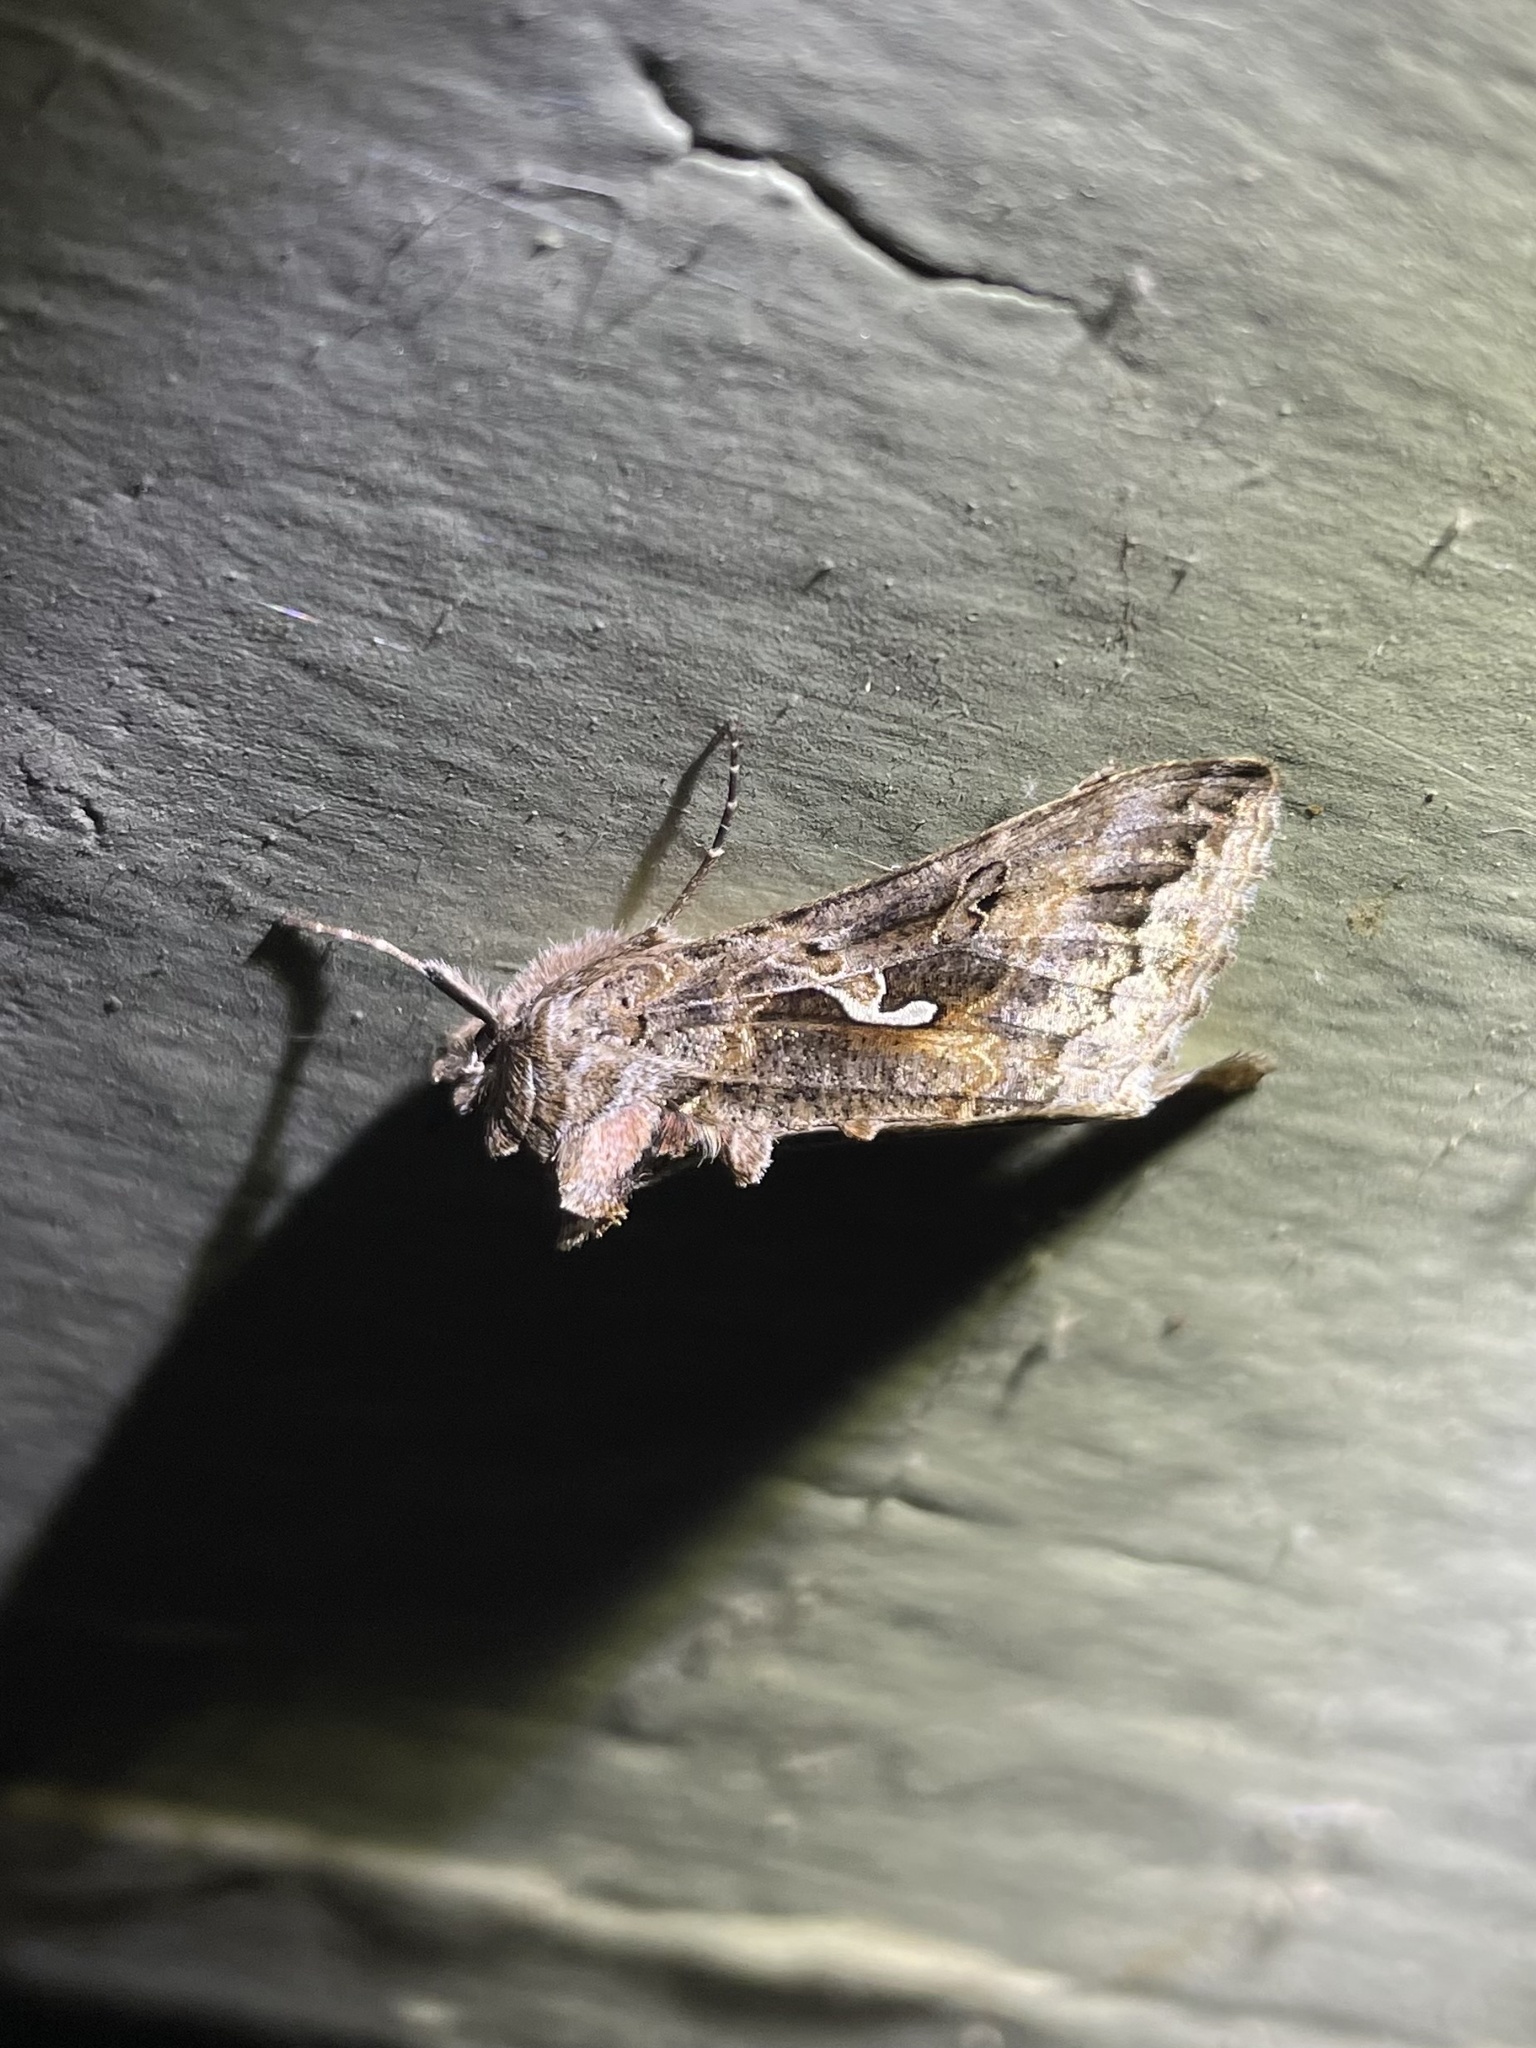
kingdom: Animalia
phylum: Arthropoda
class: Insecta
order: Lepidoptera
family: Noctuidae
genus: Autographa
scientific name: Autographa californica
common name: Alfalfa looper
